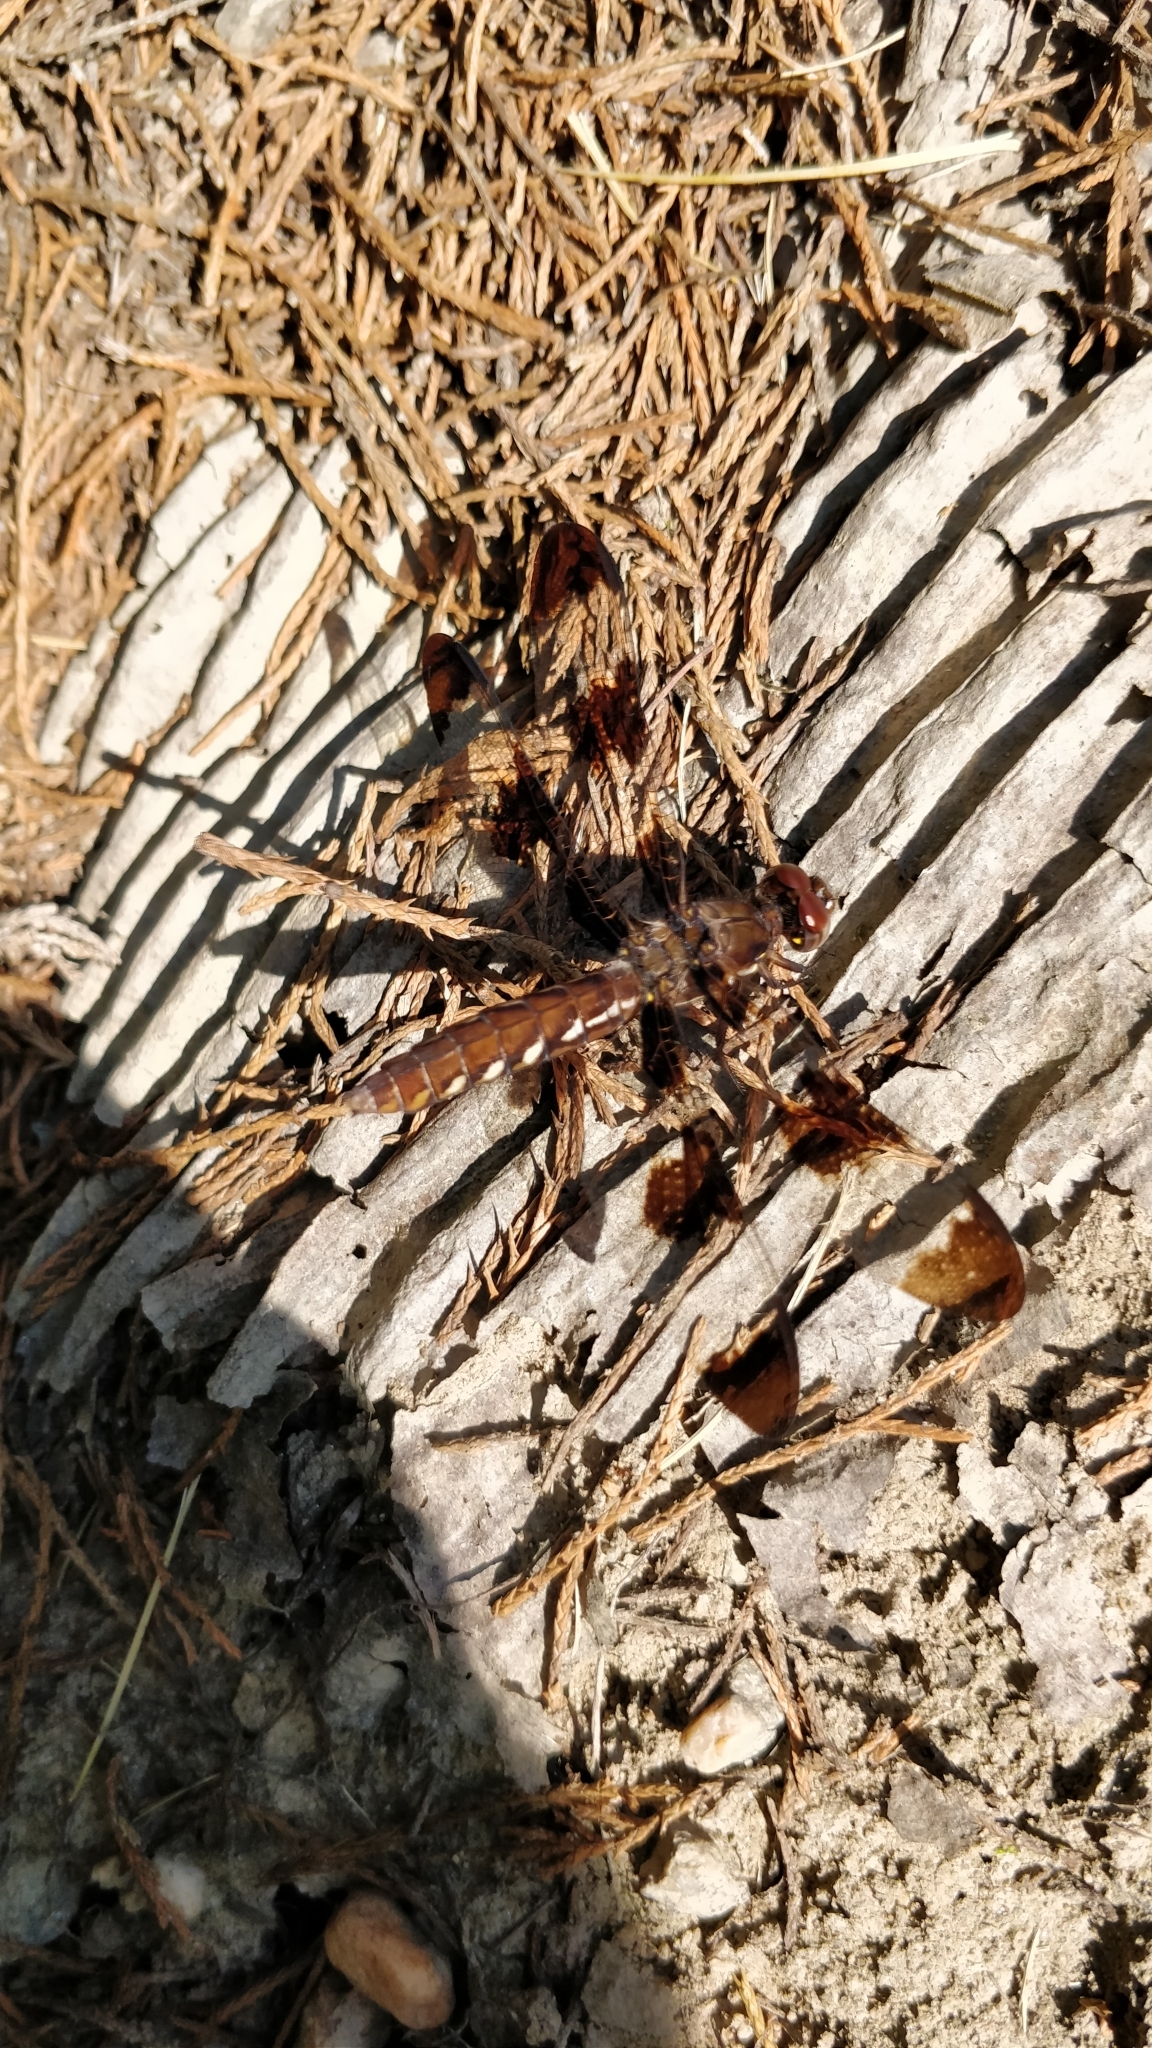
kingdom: Animalia
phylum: Arthropoda
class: Insecta
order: Odonata
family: Libellulidae
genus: Plathemis
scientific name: Plathemis lydia
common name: Common whitetail
